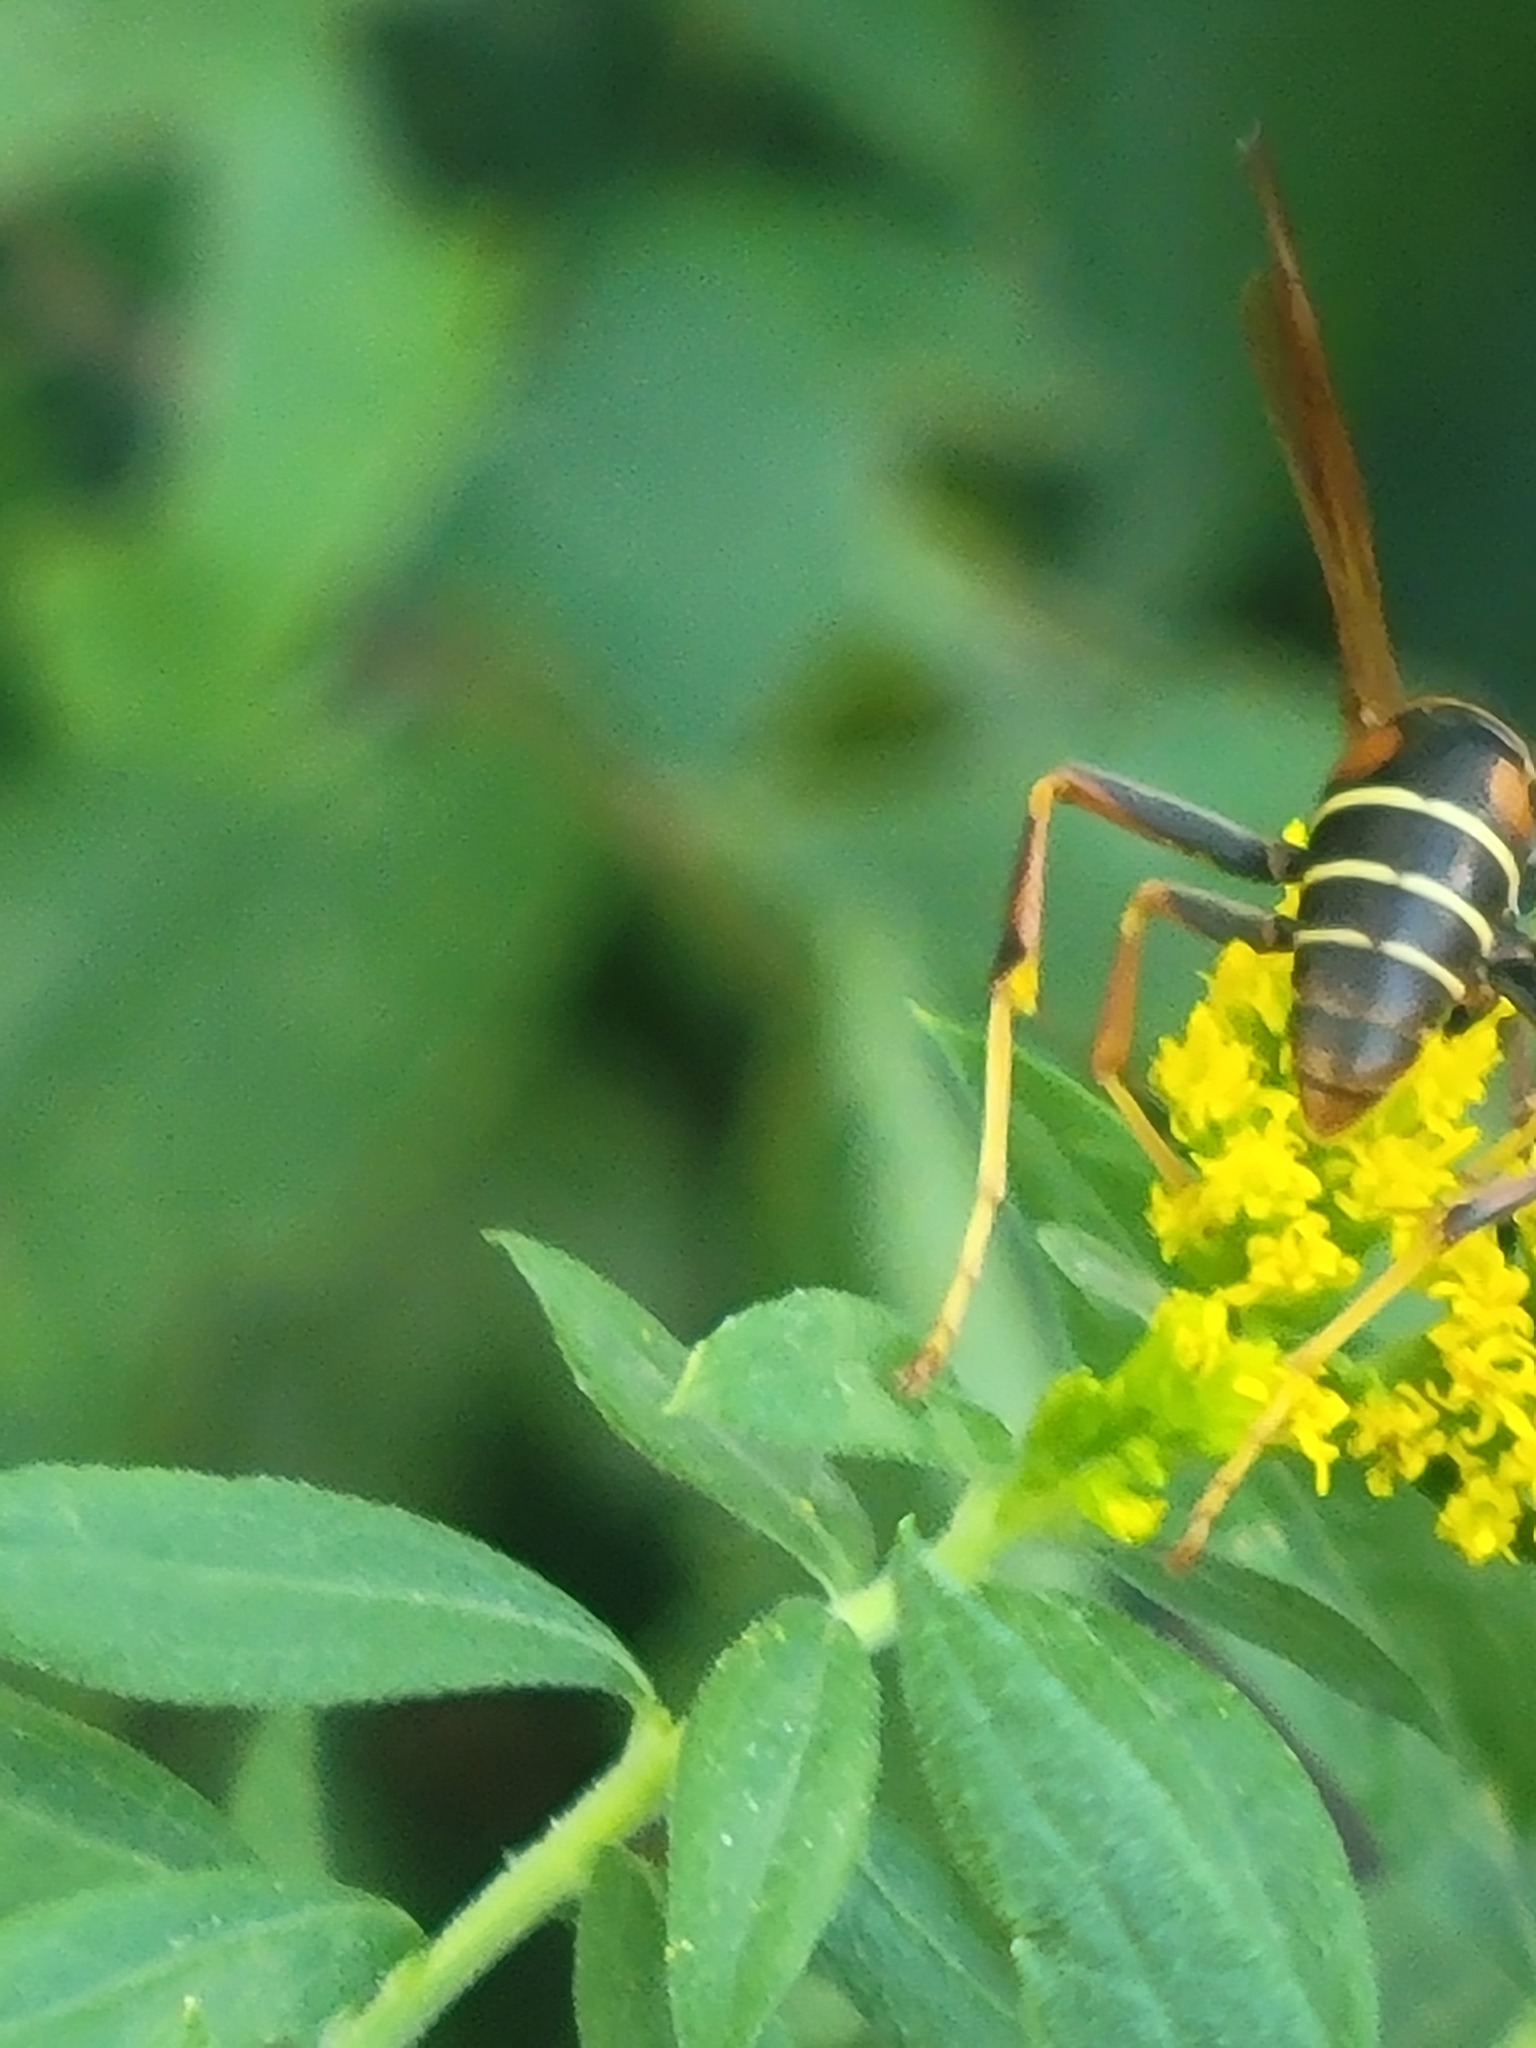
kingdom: Animalia
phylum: Arthropoda
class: Insecta
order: Hymenoptera
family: Eumenidae
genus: Polistes
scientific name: Polistes fuscatus
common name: Dark paper wasp
